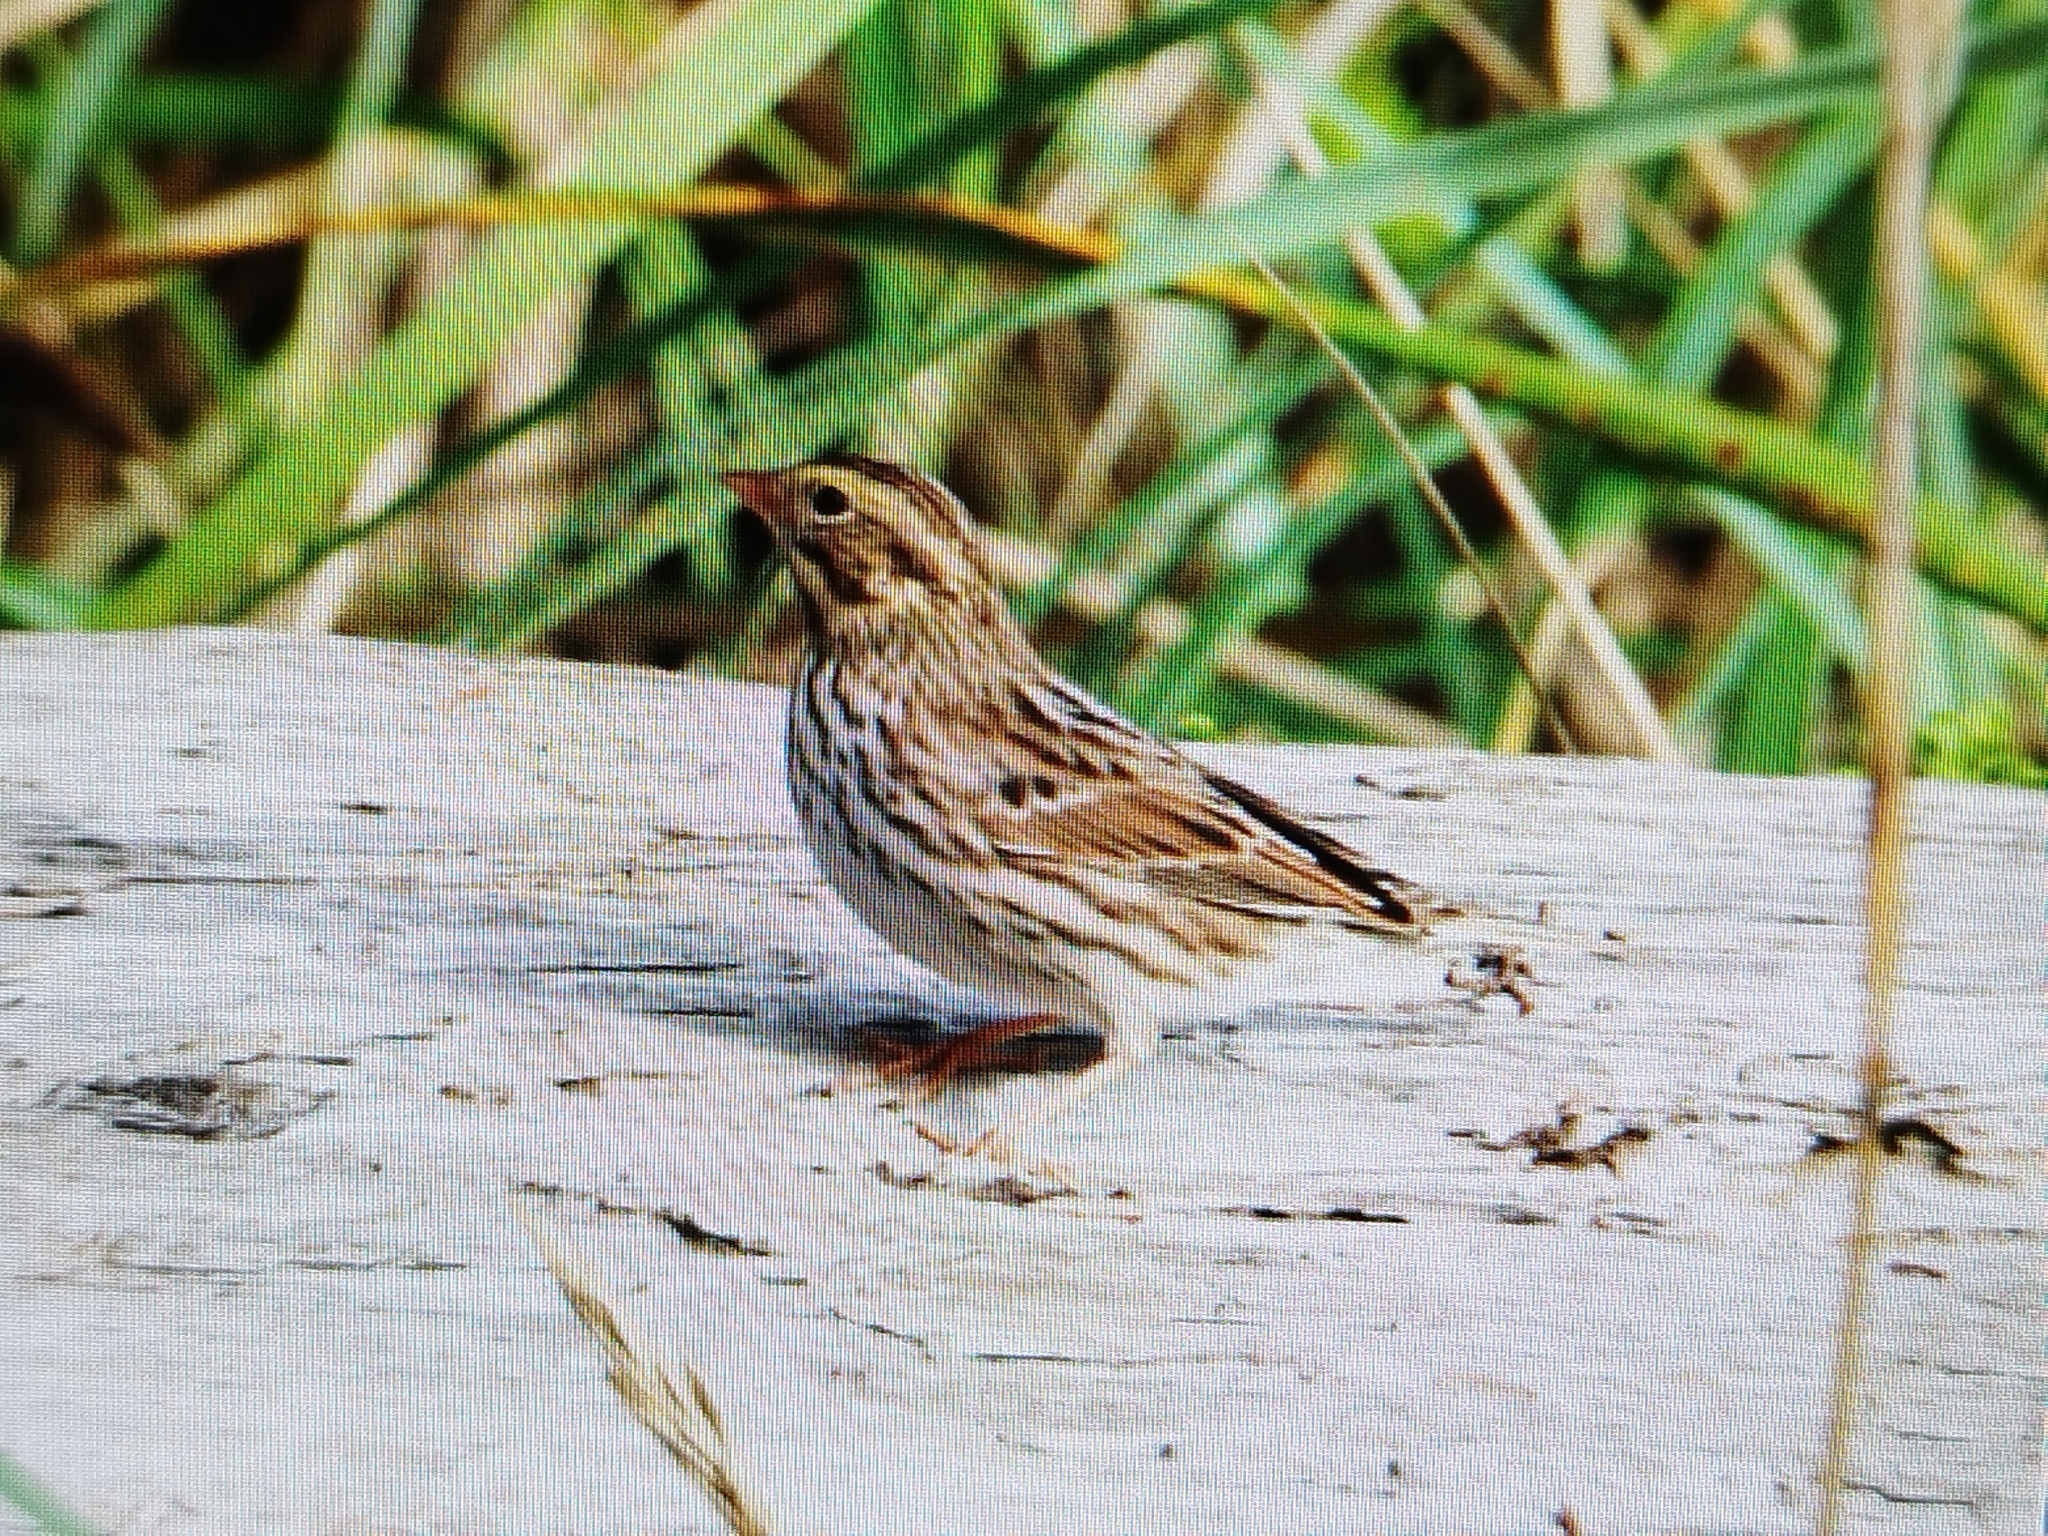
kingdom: Animalia
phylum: Chordata
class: Aves
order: Passeriformes
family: Passerellidae
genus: Passerculus
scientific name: Passerculus sandwichensis
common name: Savannah sparrow
